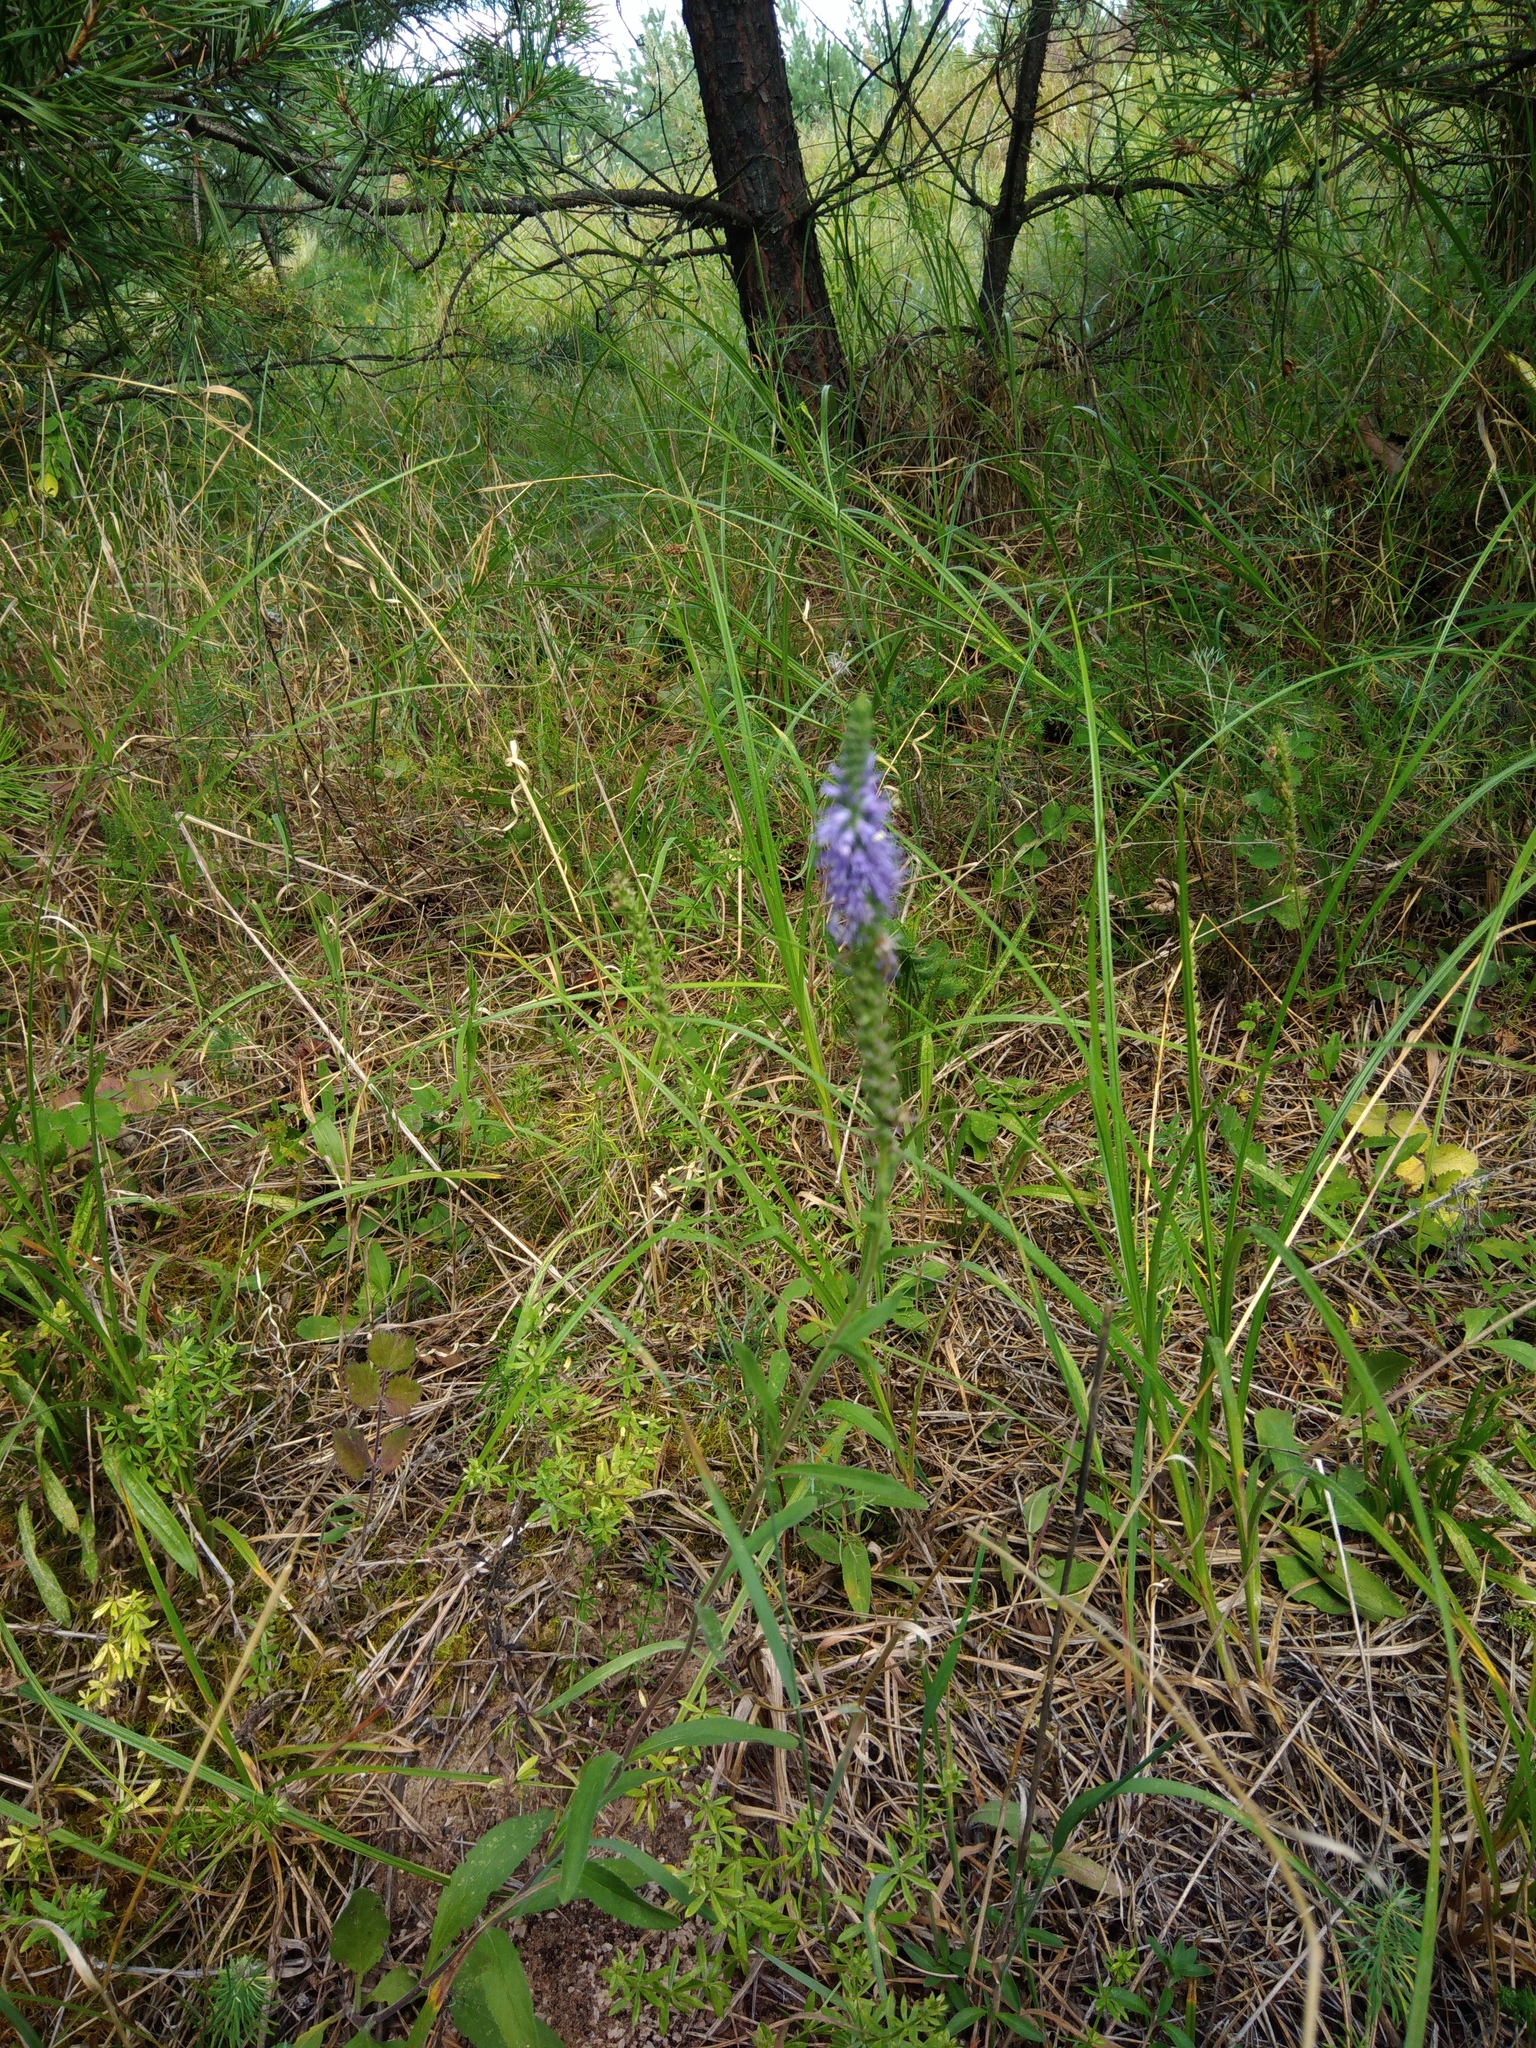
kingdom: Plantae
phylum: Tracheophyta
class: Magnoliopsida
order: Lamiales
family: Plantaginaceae
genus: Veronica
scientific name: Veronica spicata
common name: Spiked speedwell
